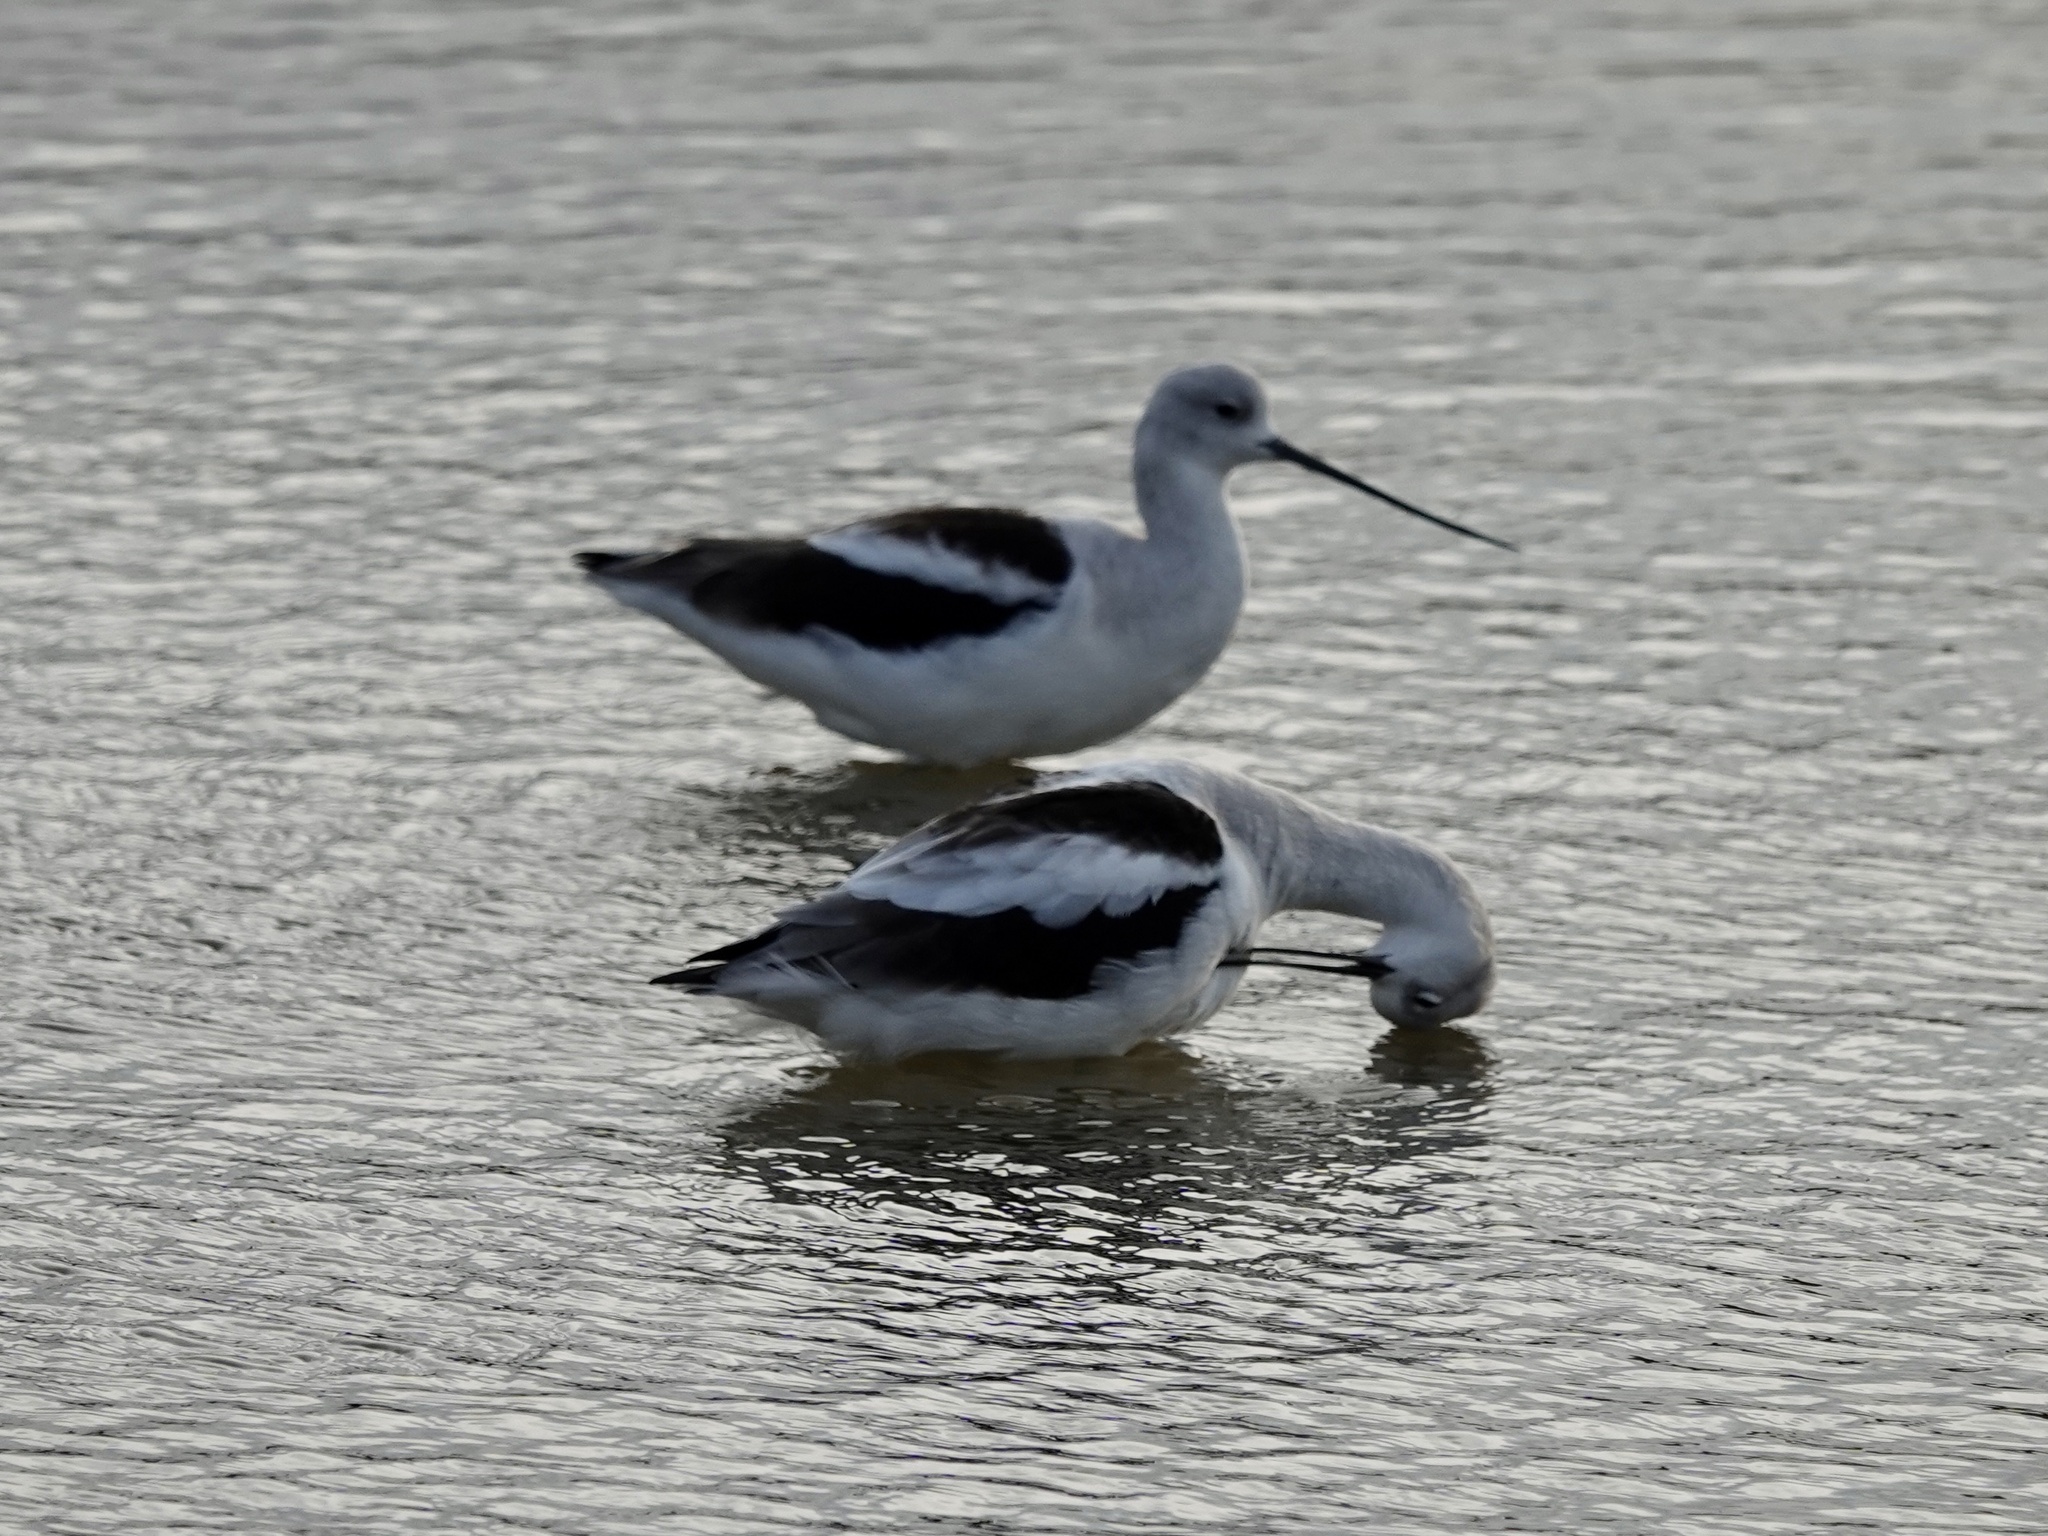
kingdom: Animalia
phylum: Chordata
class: Aves
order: Charadriiformes
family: Recurvirostridae
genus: Recurvirostra
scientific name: Recurvirostra americana
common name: American avocet
